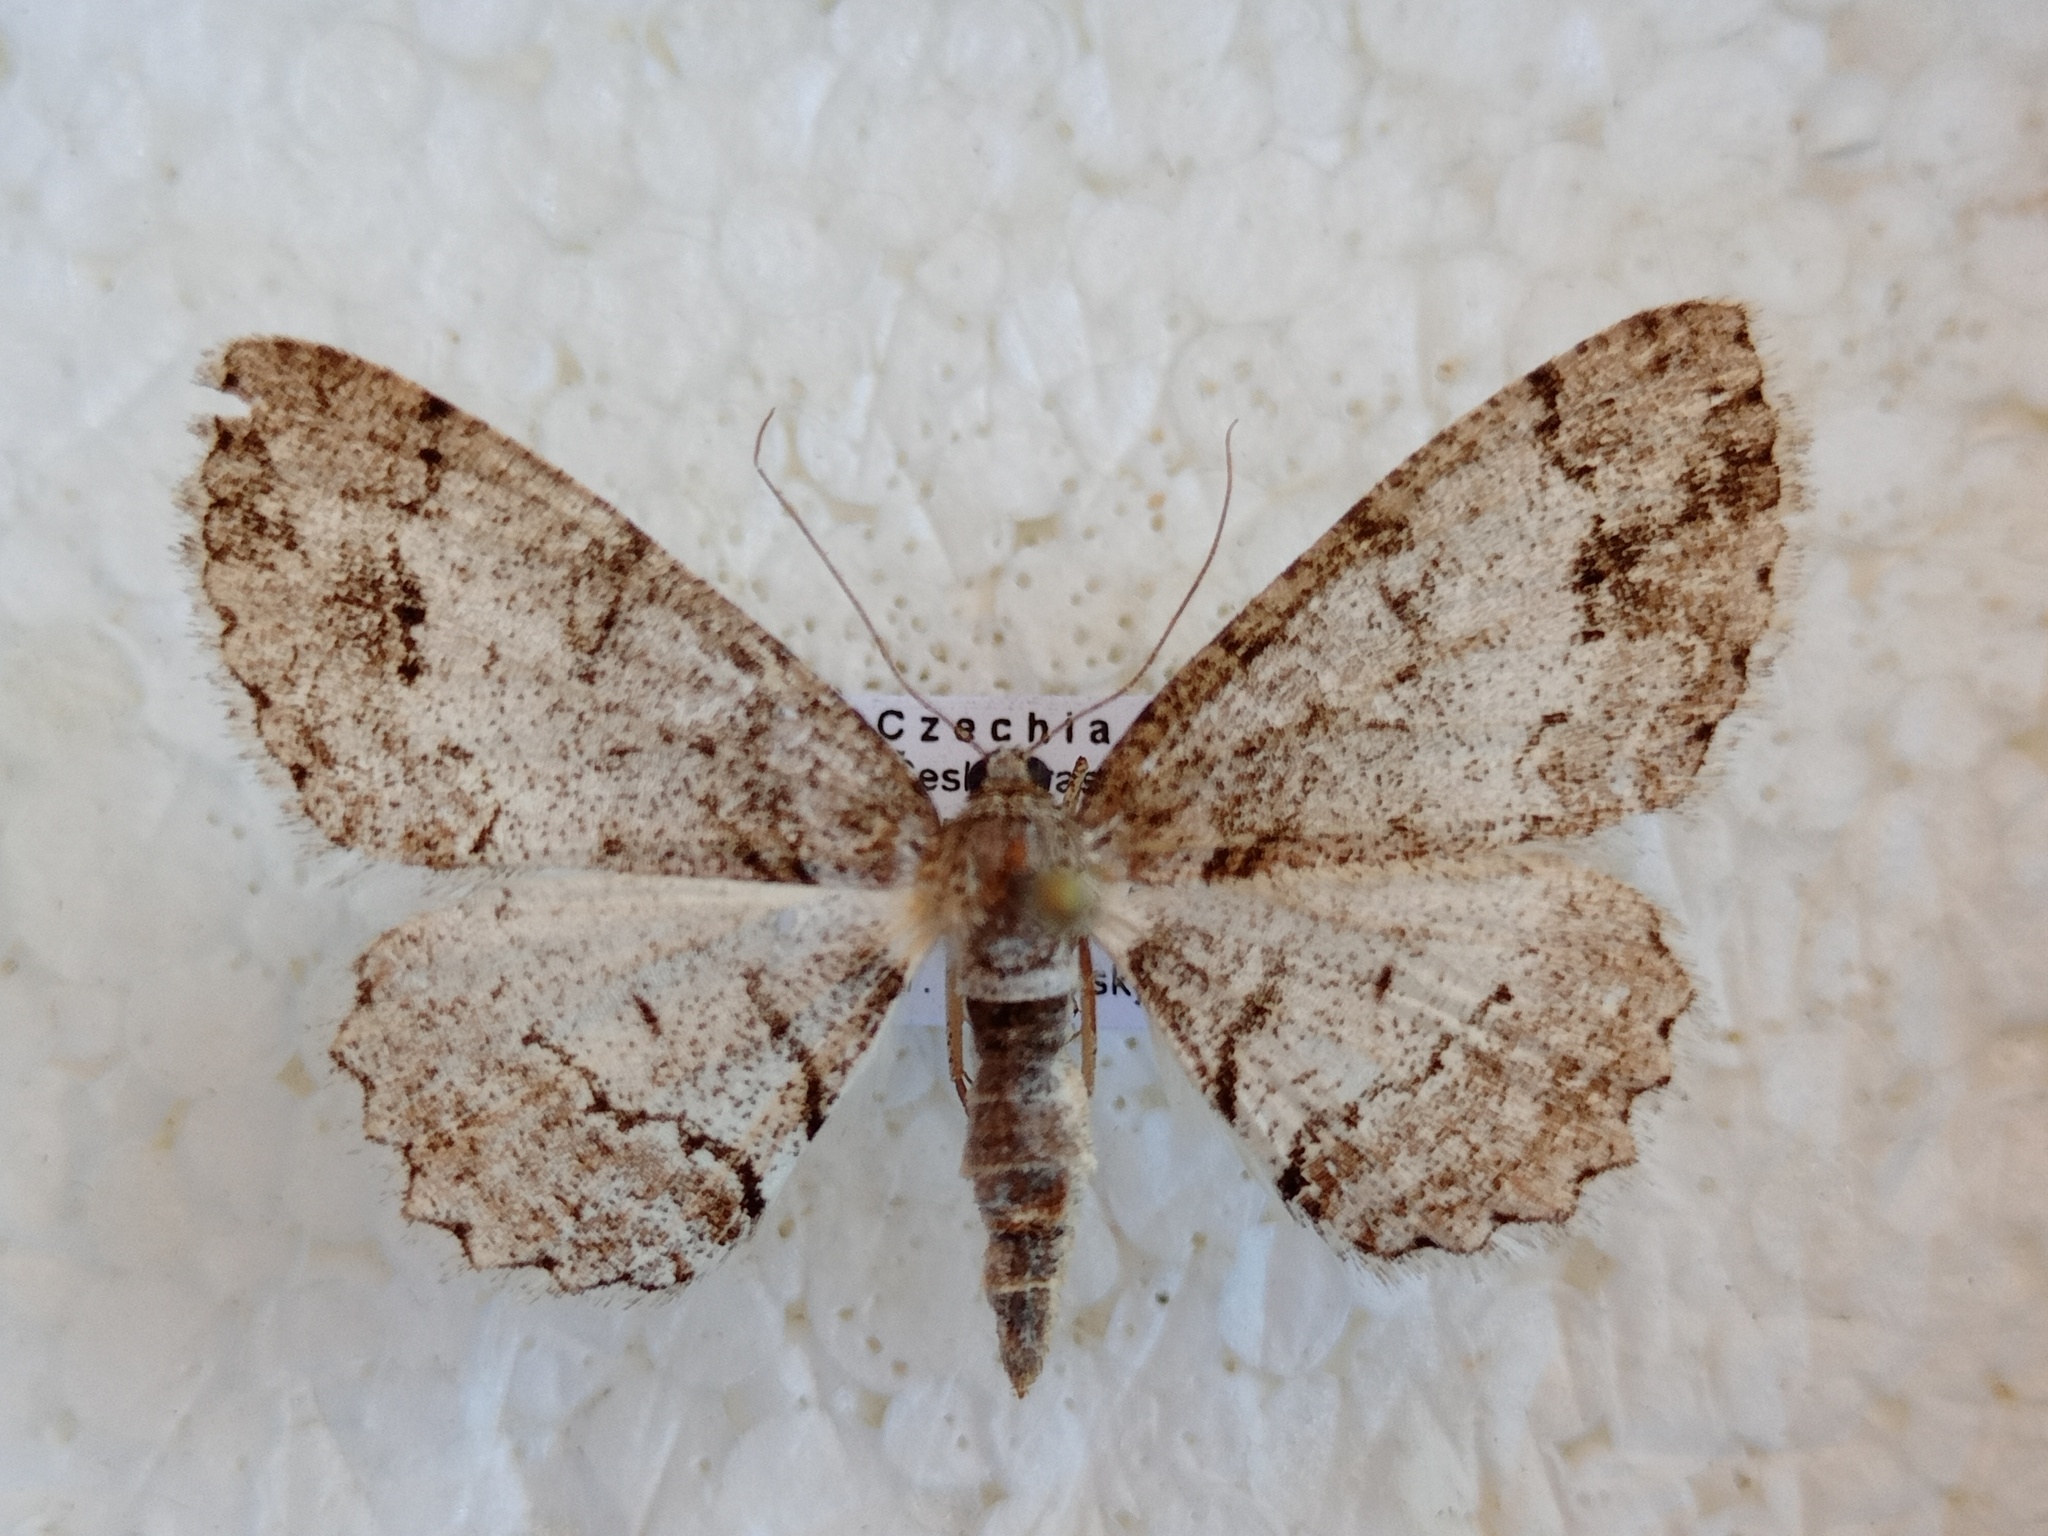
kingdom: Animalia
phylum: Arthropoda
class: Insecta
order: Lepidoptera
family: Geometridae
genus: Paradarisa
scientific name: Paradarisa consonaria
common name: Square spot
